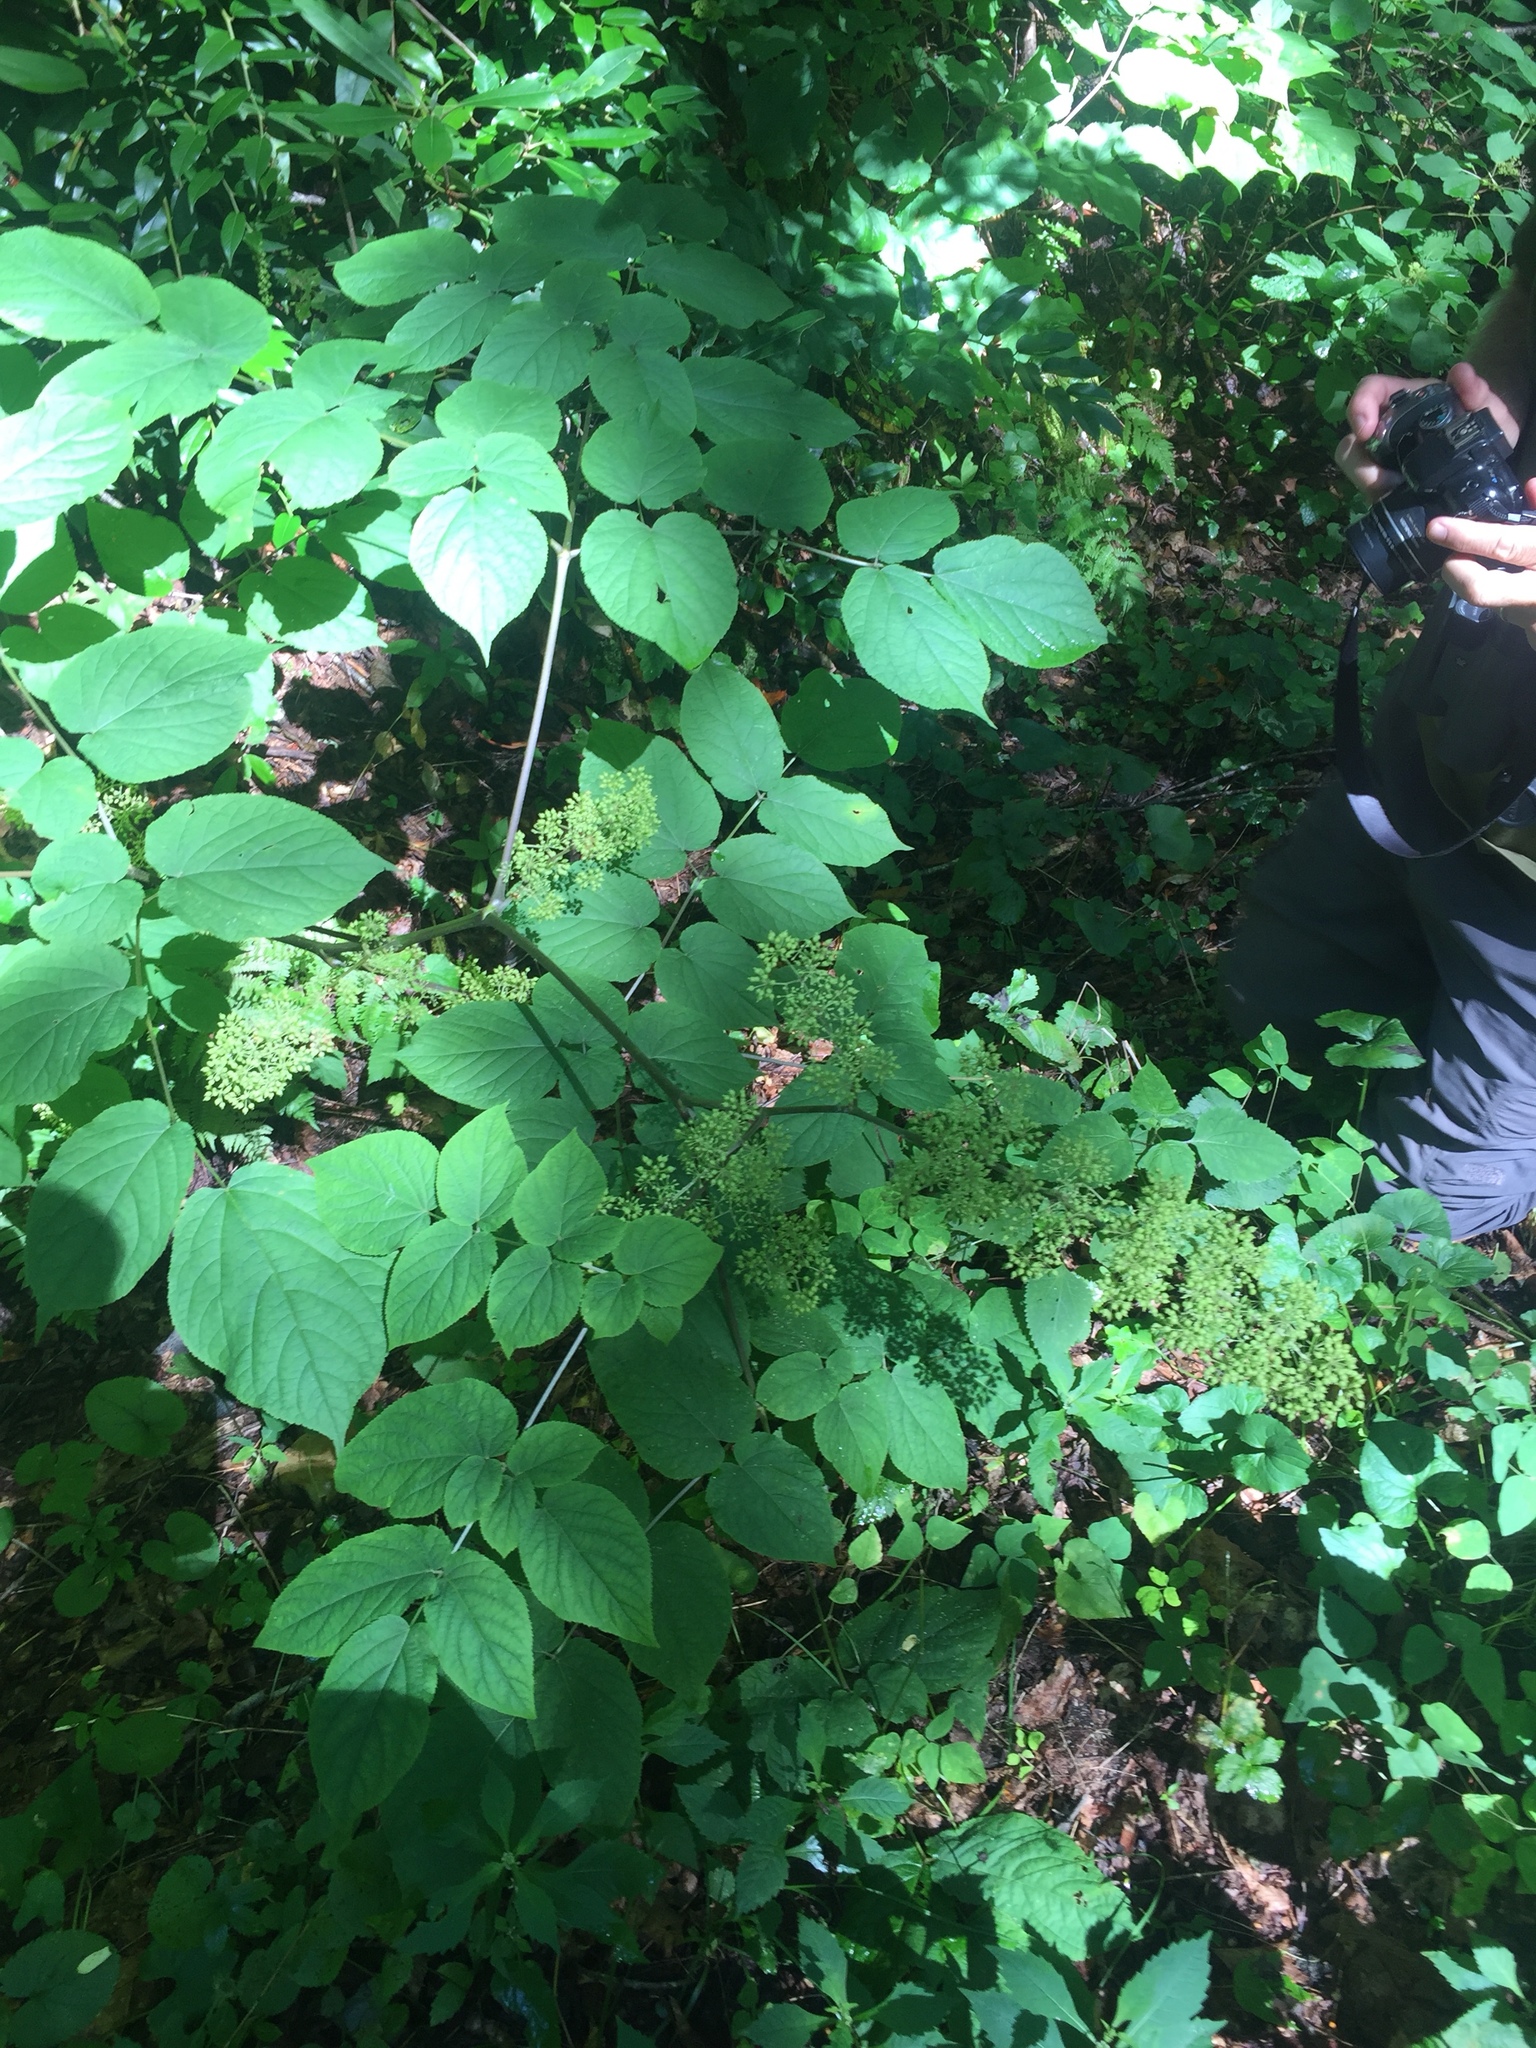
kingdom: Plantae
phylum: Tracheophyta
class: Magnoliopsida
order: Apiales
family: Araliaceae
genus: Aralia
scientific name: Aralia racemosa
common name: American-spikenard
